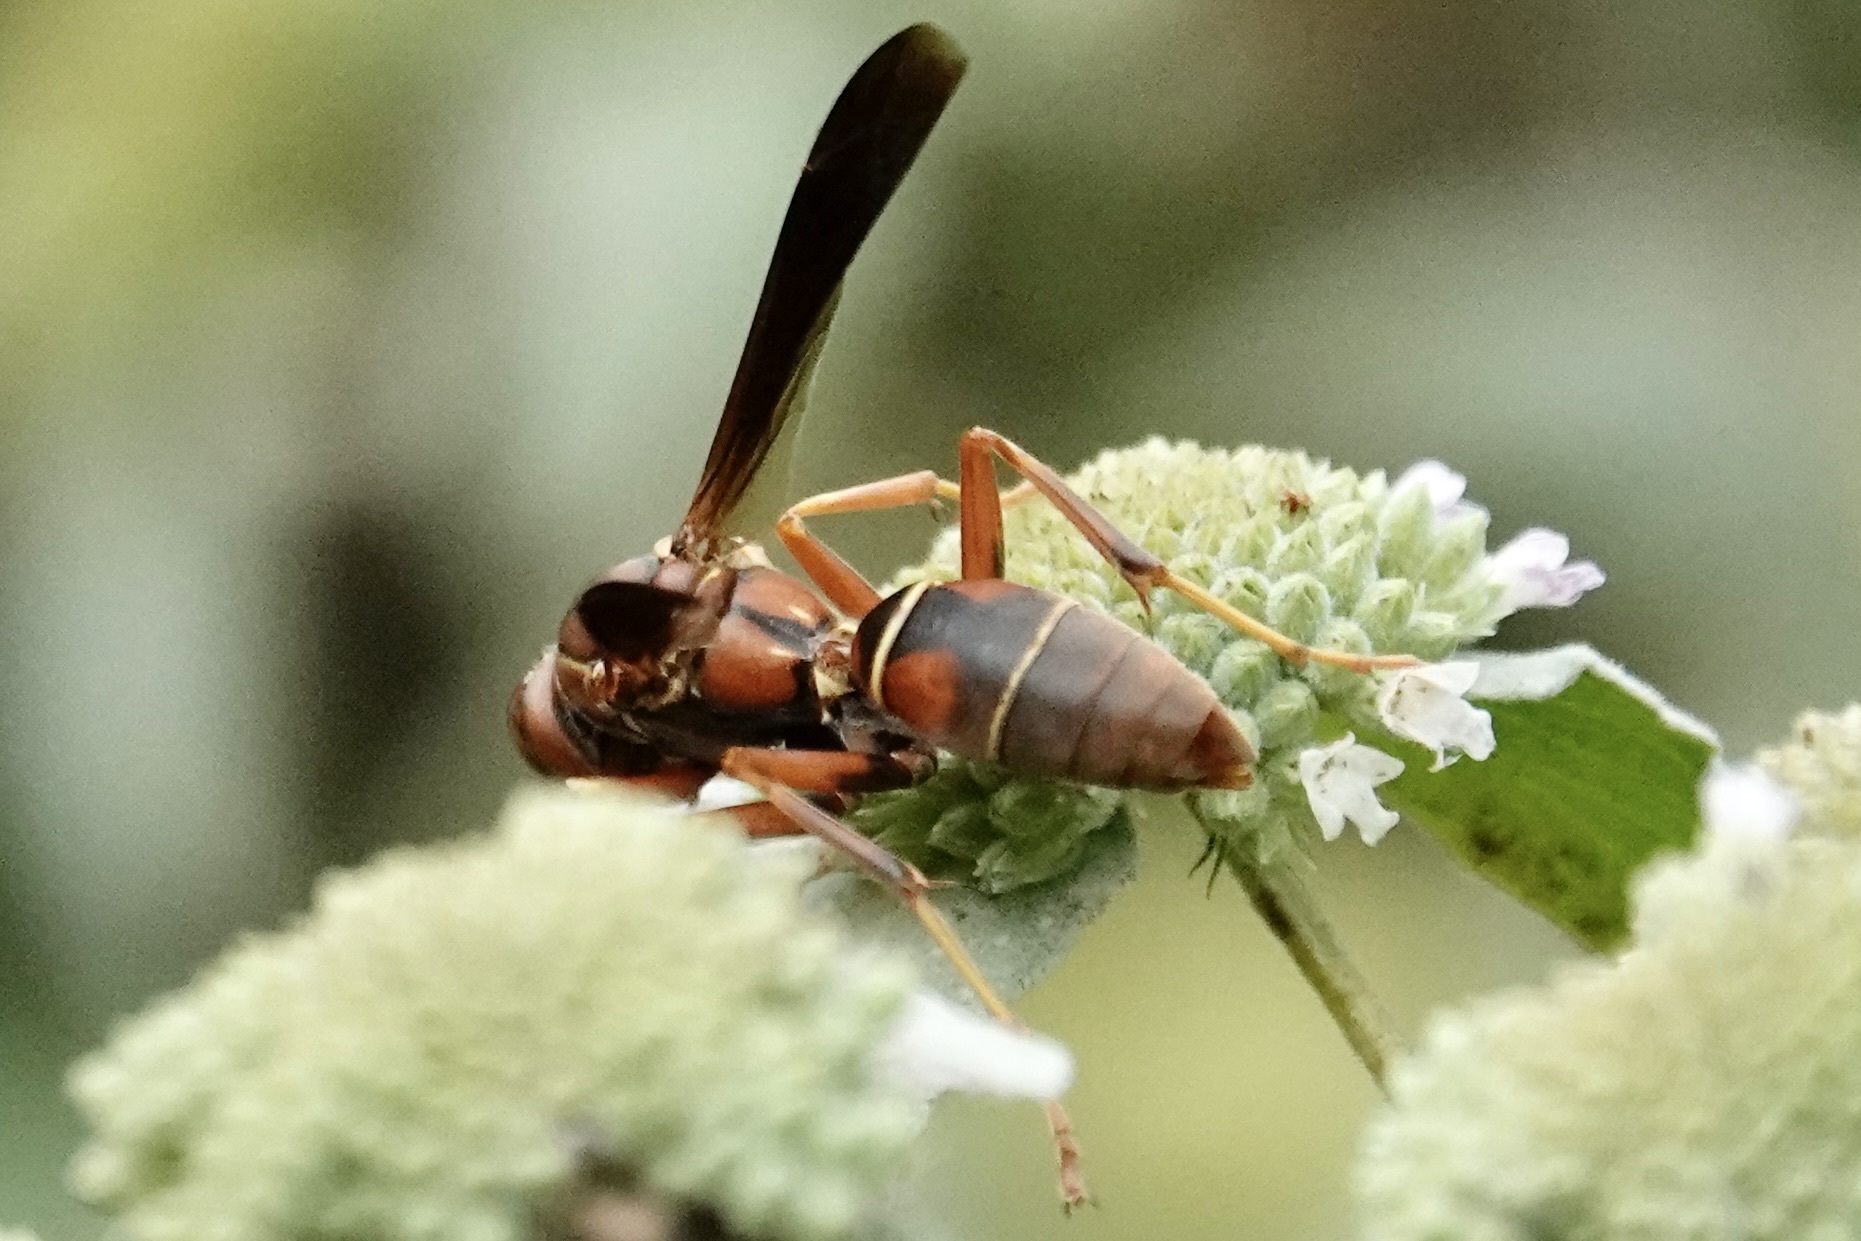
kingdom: Animalia
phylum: Arthropoda
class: Insecta
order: Hymenoptera
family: Eumenidae
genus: Polistes
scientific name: Polistes fuscatus
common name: Dark paper wasp
